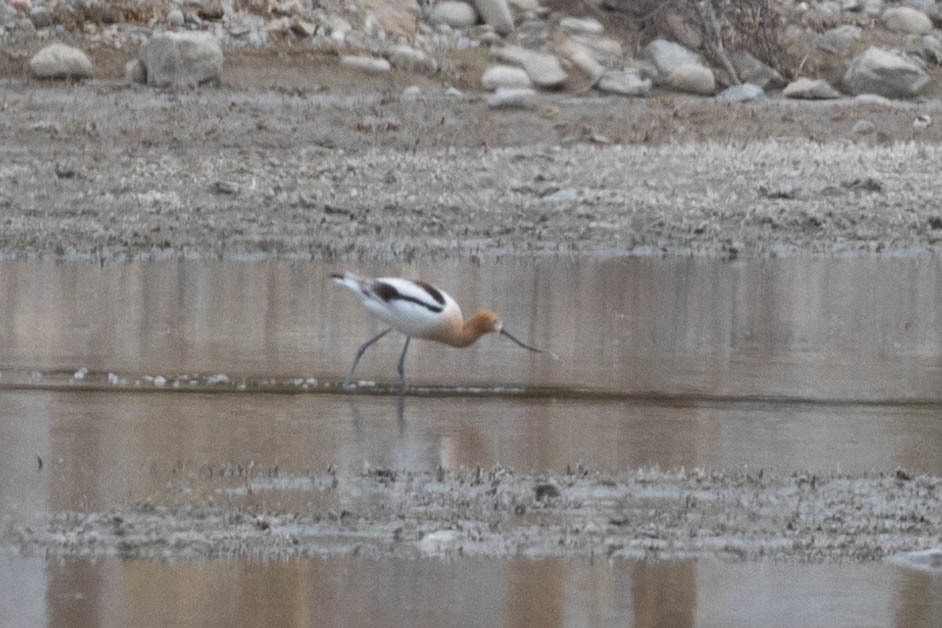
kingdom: Animalia
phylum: Chordata
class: Aves
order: Charadriiformes
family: Recurvirostridae
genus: Recurvirostra
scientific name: Recurvirostra americana
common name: American avocet
